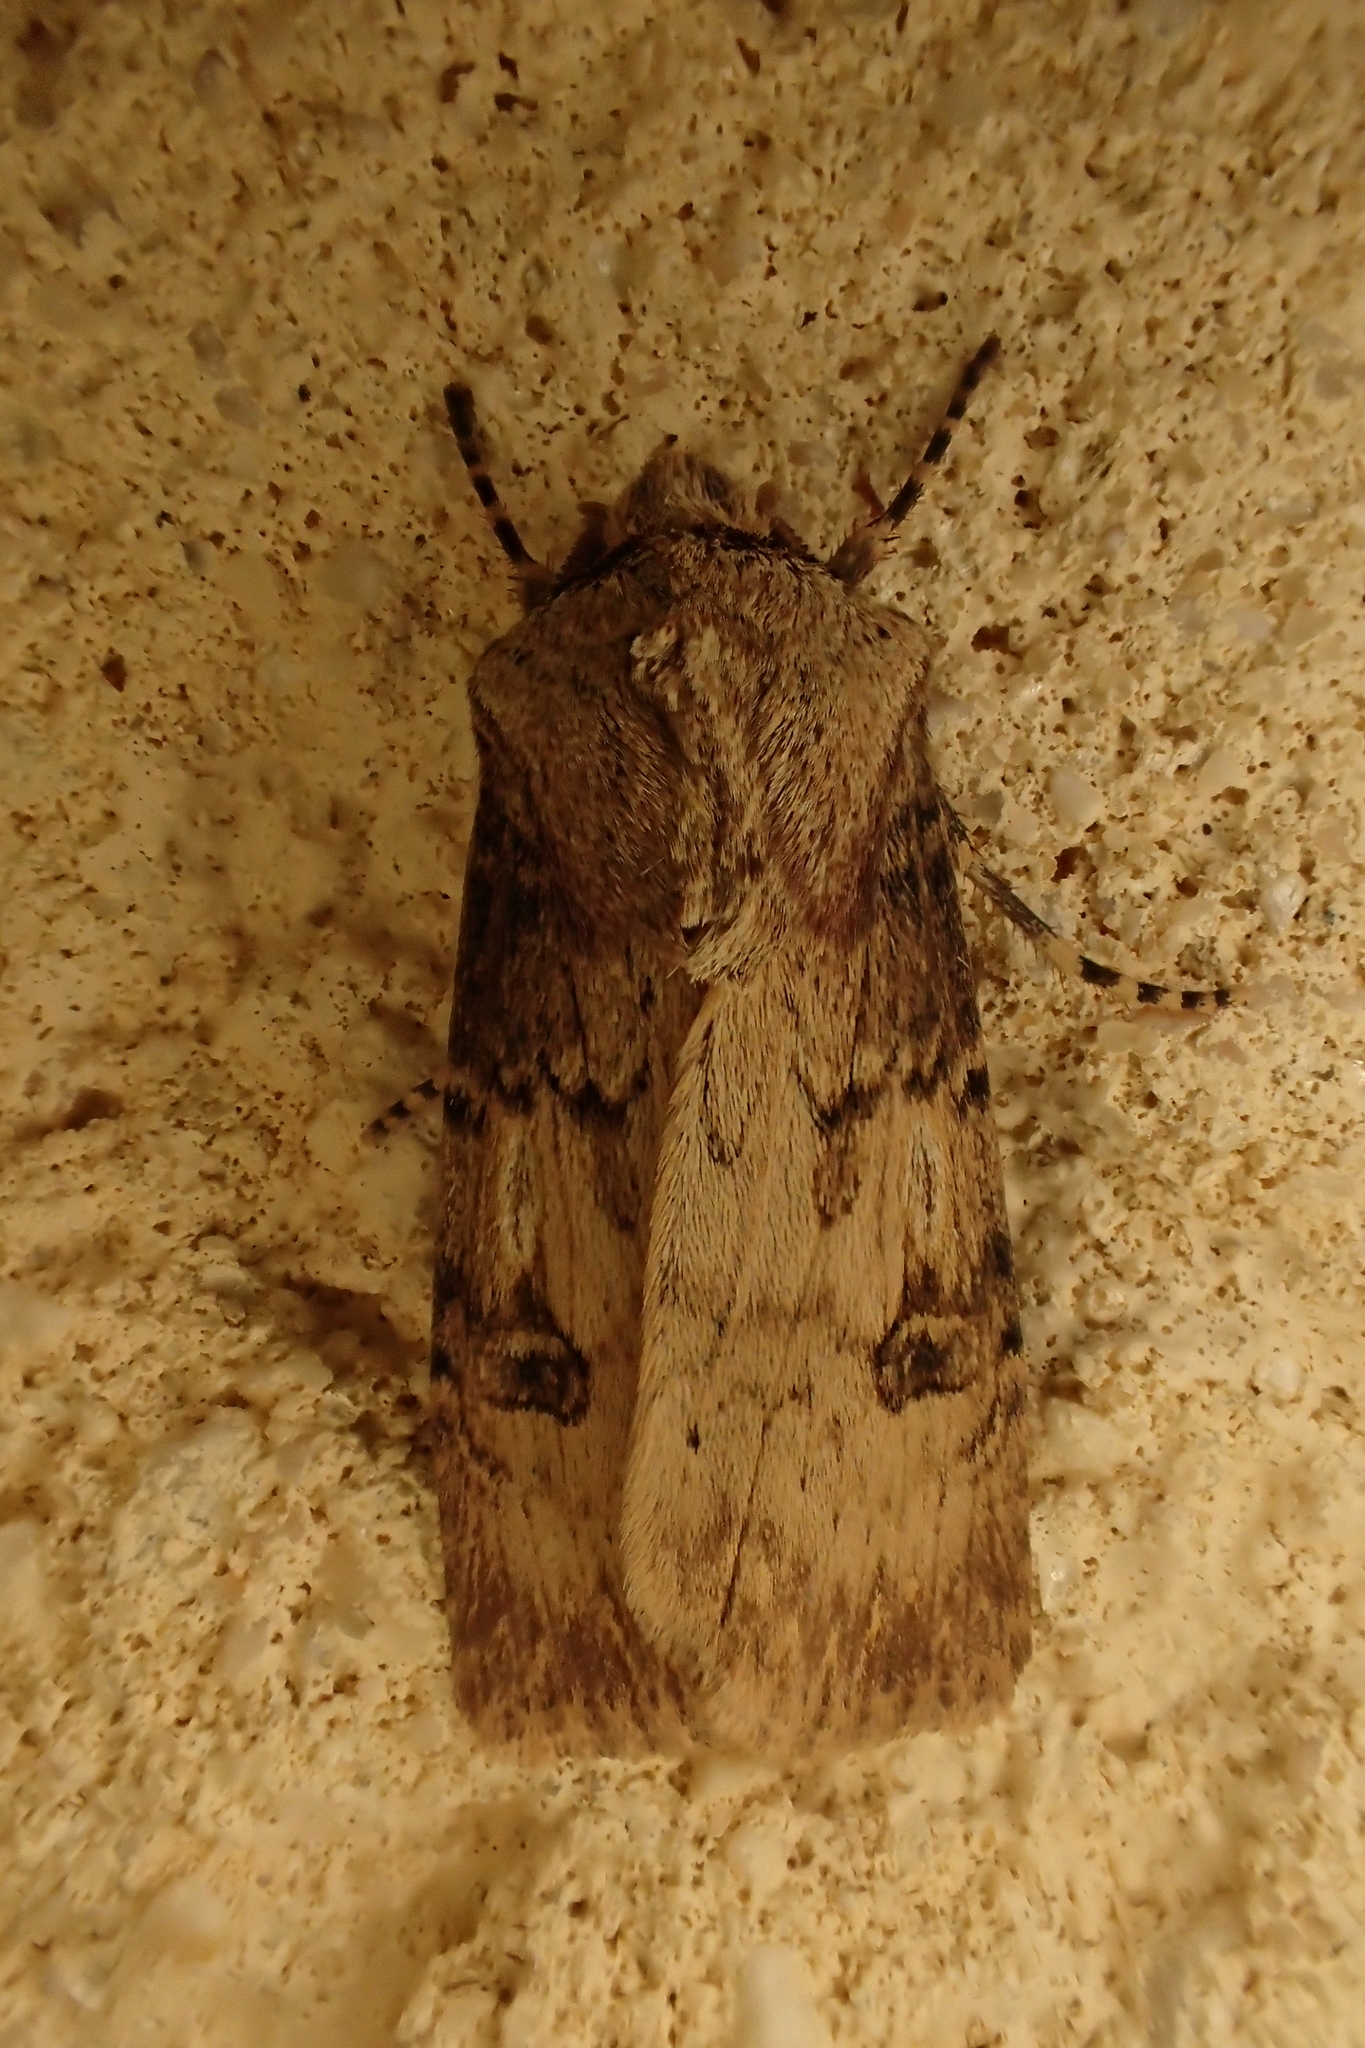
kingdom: Animalia
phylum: Arthropoda
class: Insecta
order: Lepidoptera
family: Noctuidae
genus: Agrotis
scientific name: Agrotis puta
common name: Shuttle-shaped dart
